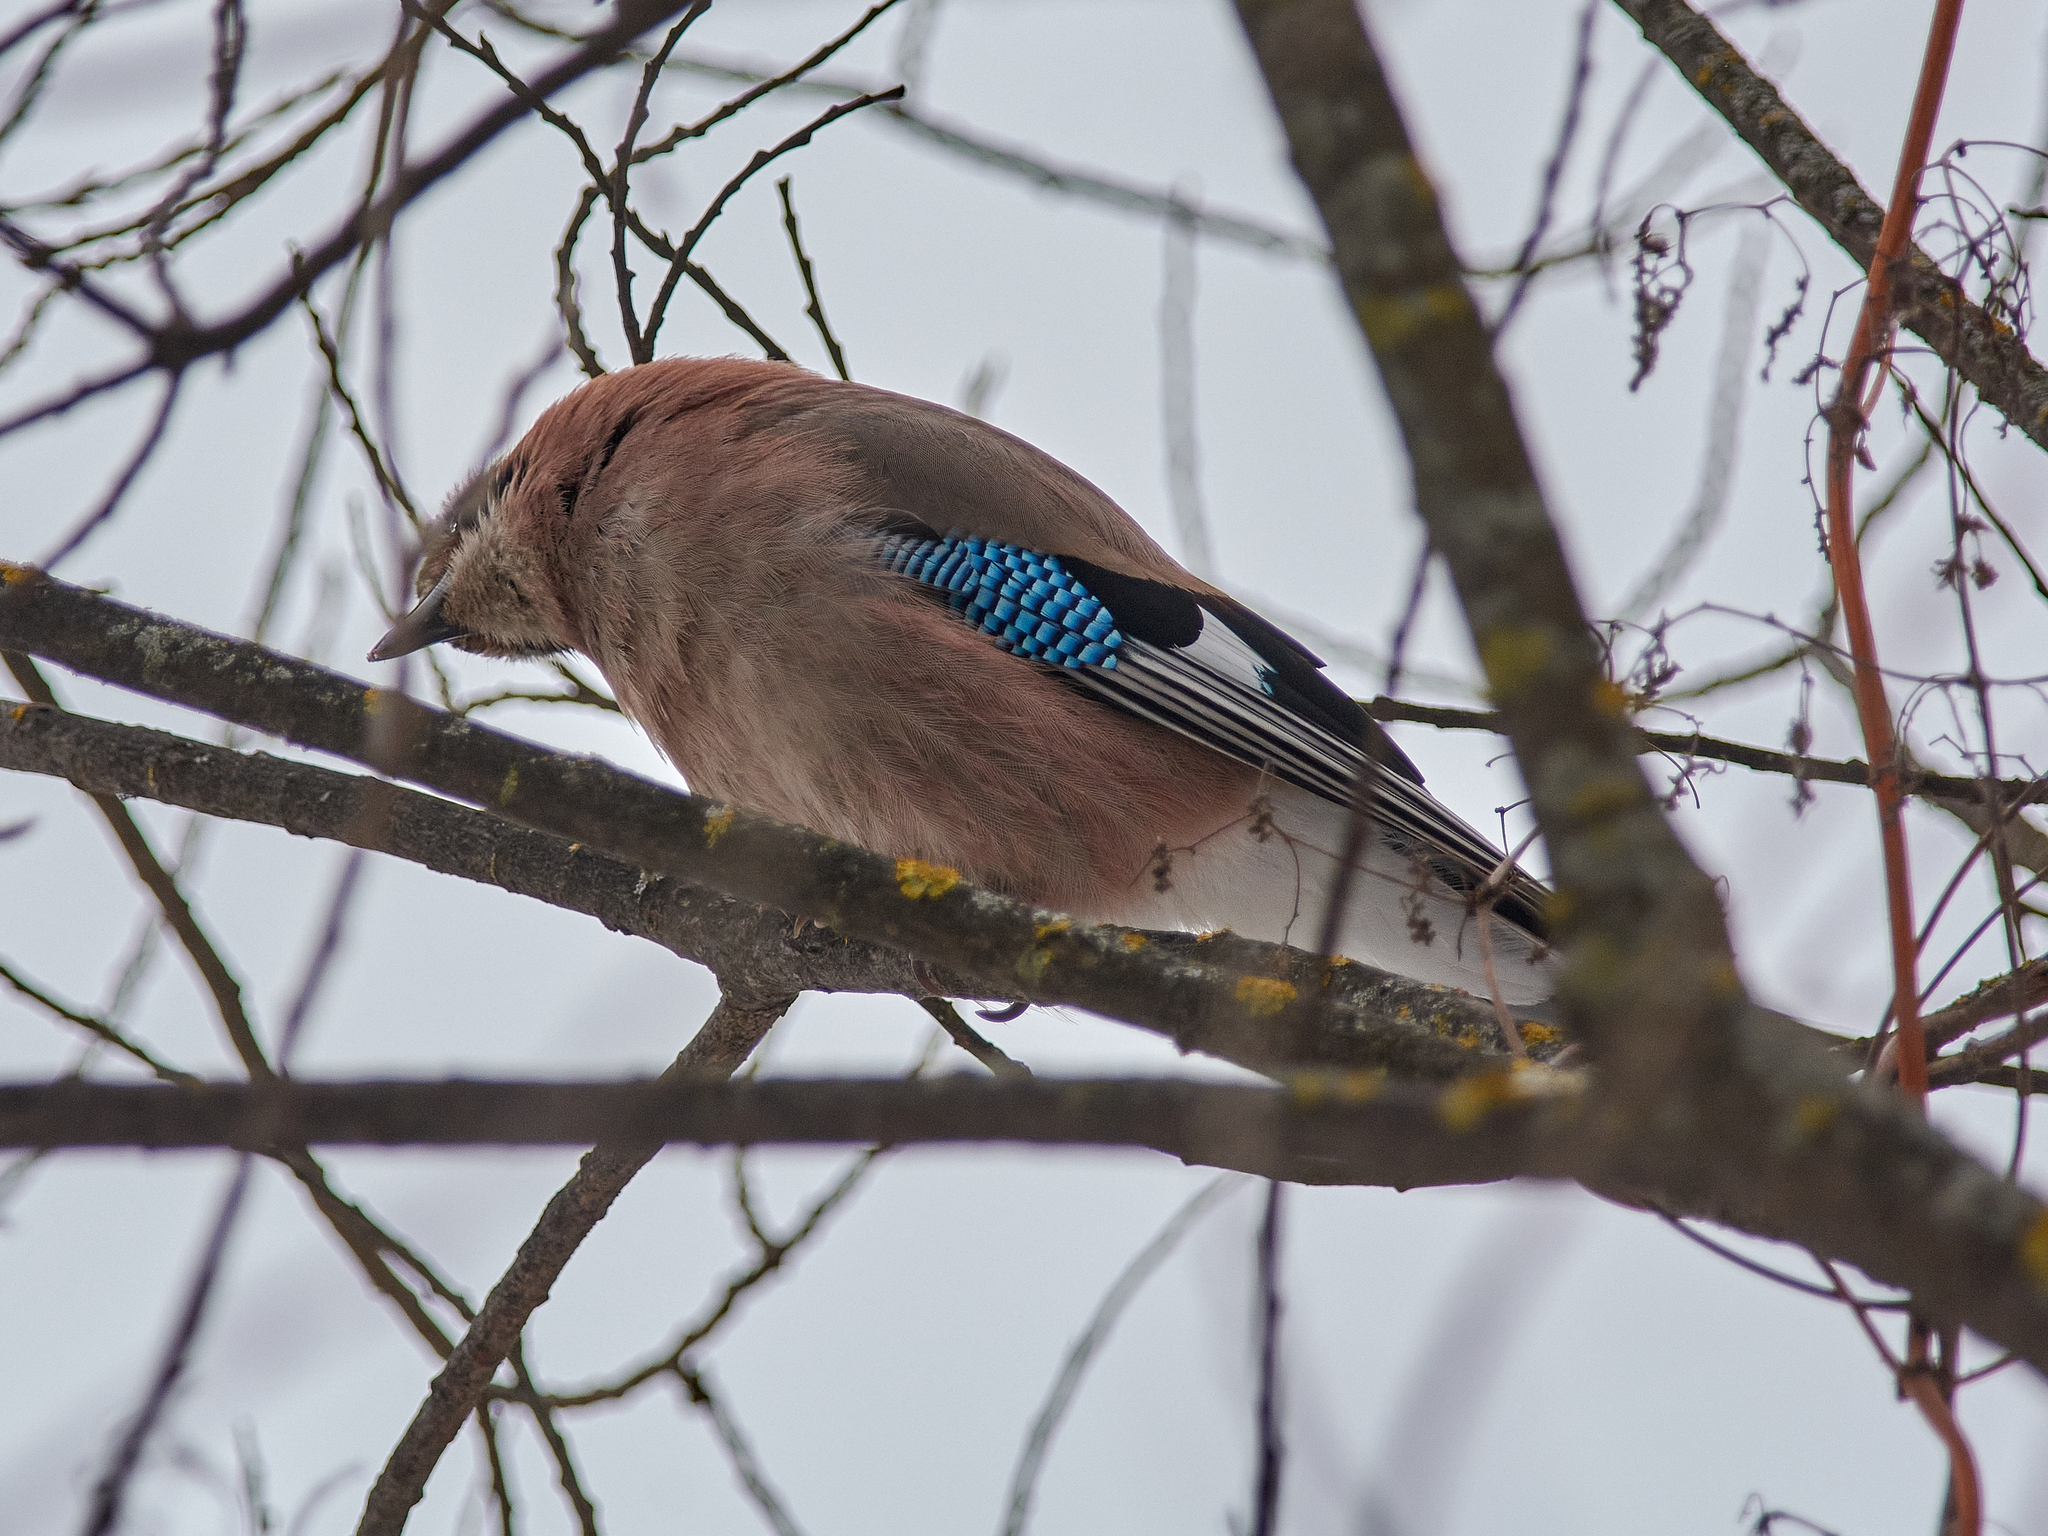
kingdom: Animalia
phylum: Chordata
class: Aves
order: Passeriformes
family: Corvidae
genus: Garrulus
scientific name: Garrulus glandarius
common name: Eurasian jay
